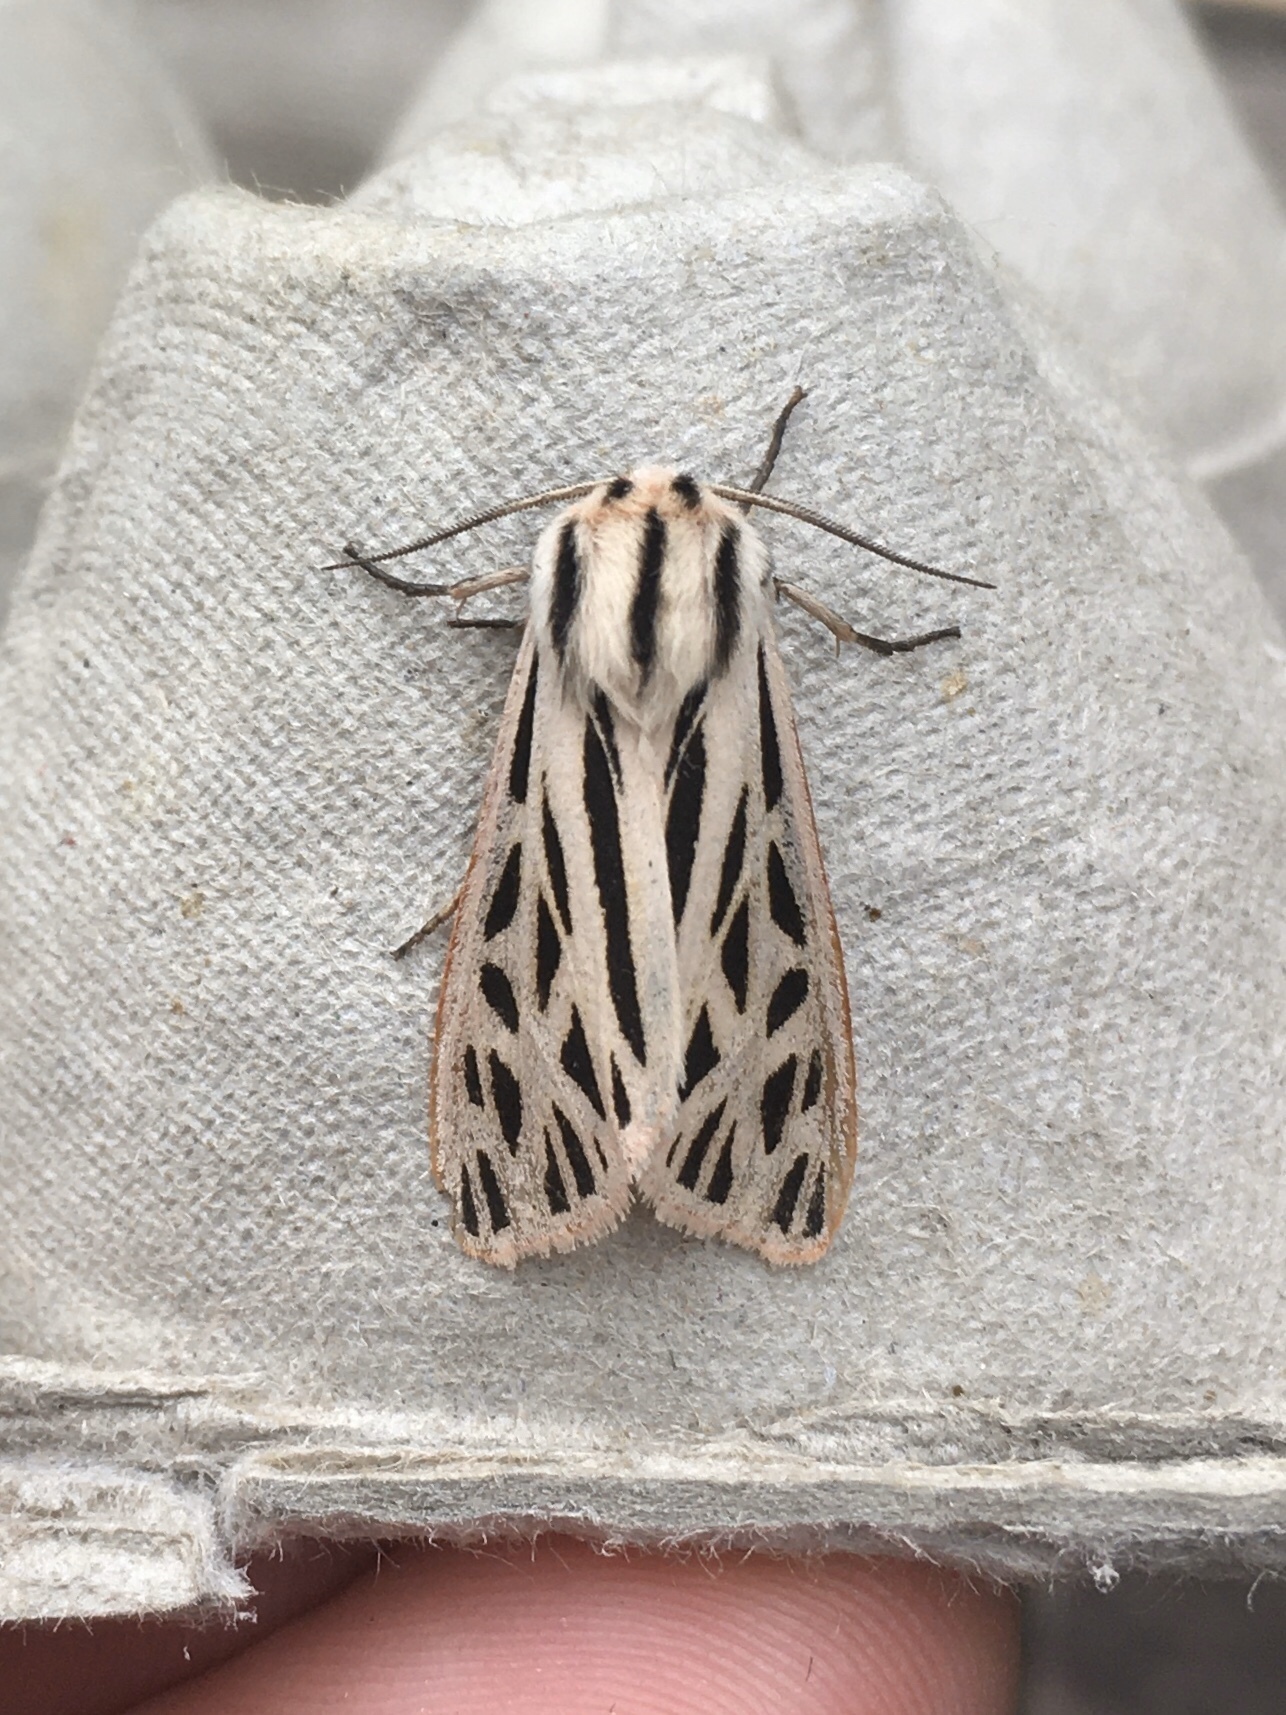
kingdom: Animalia
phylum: Arthropoda
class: Insecta
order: Lepidoptera
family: Erebidae
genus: Apantesis
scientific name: Apantesis arge
